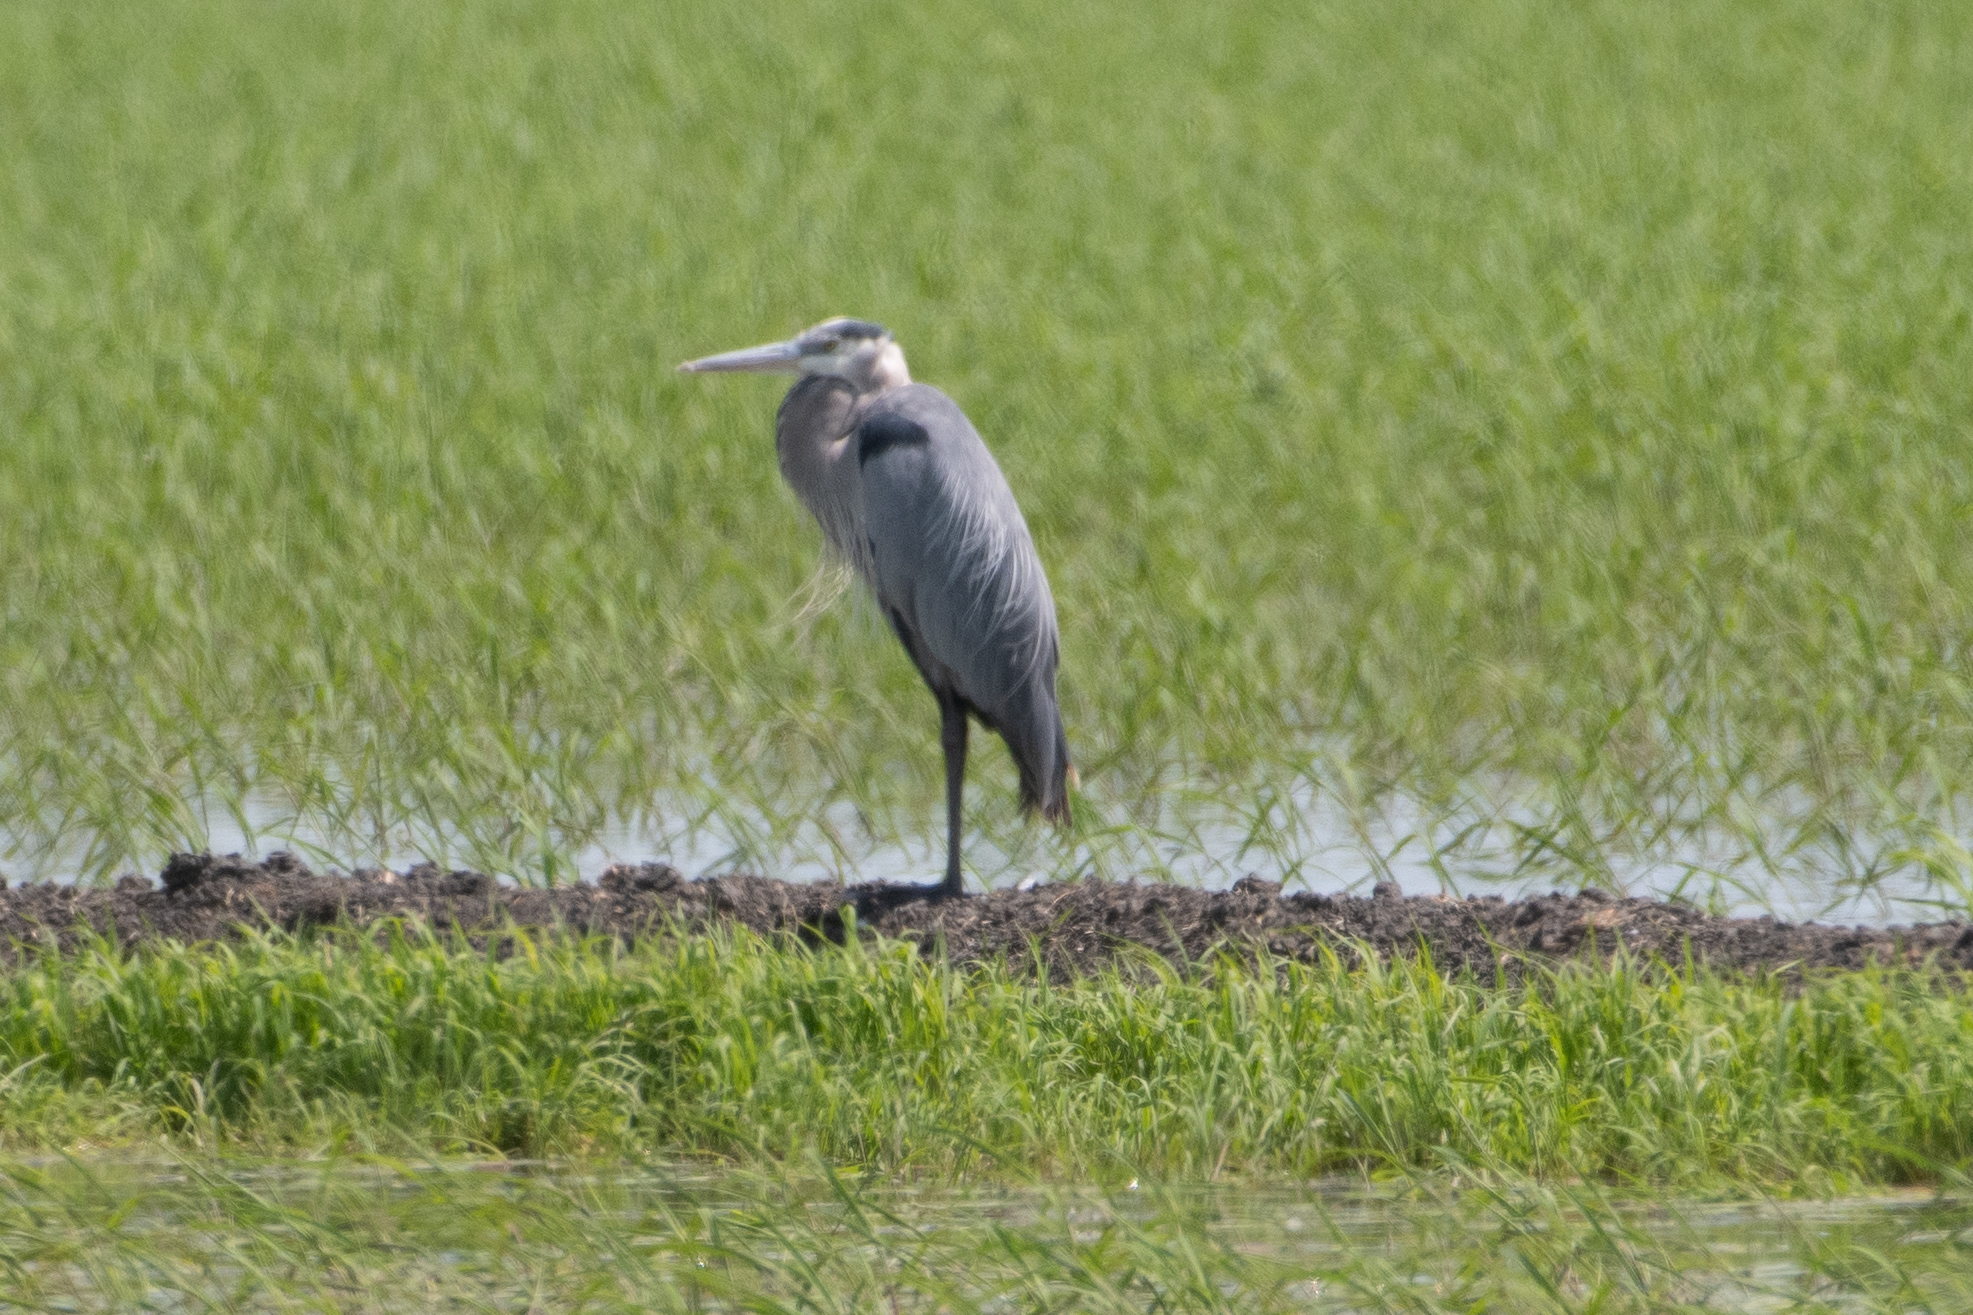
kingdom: Animalia
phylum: Chordata
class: Aves
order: Pelecaniformes
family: Ardeidae
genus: Ardea
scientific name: Ardea herodias
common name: Great blue heron
